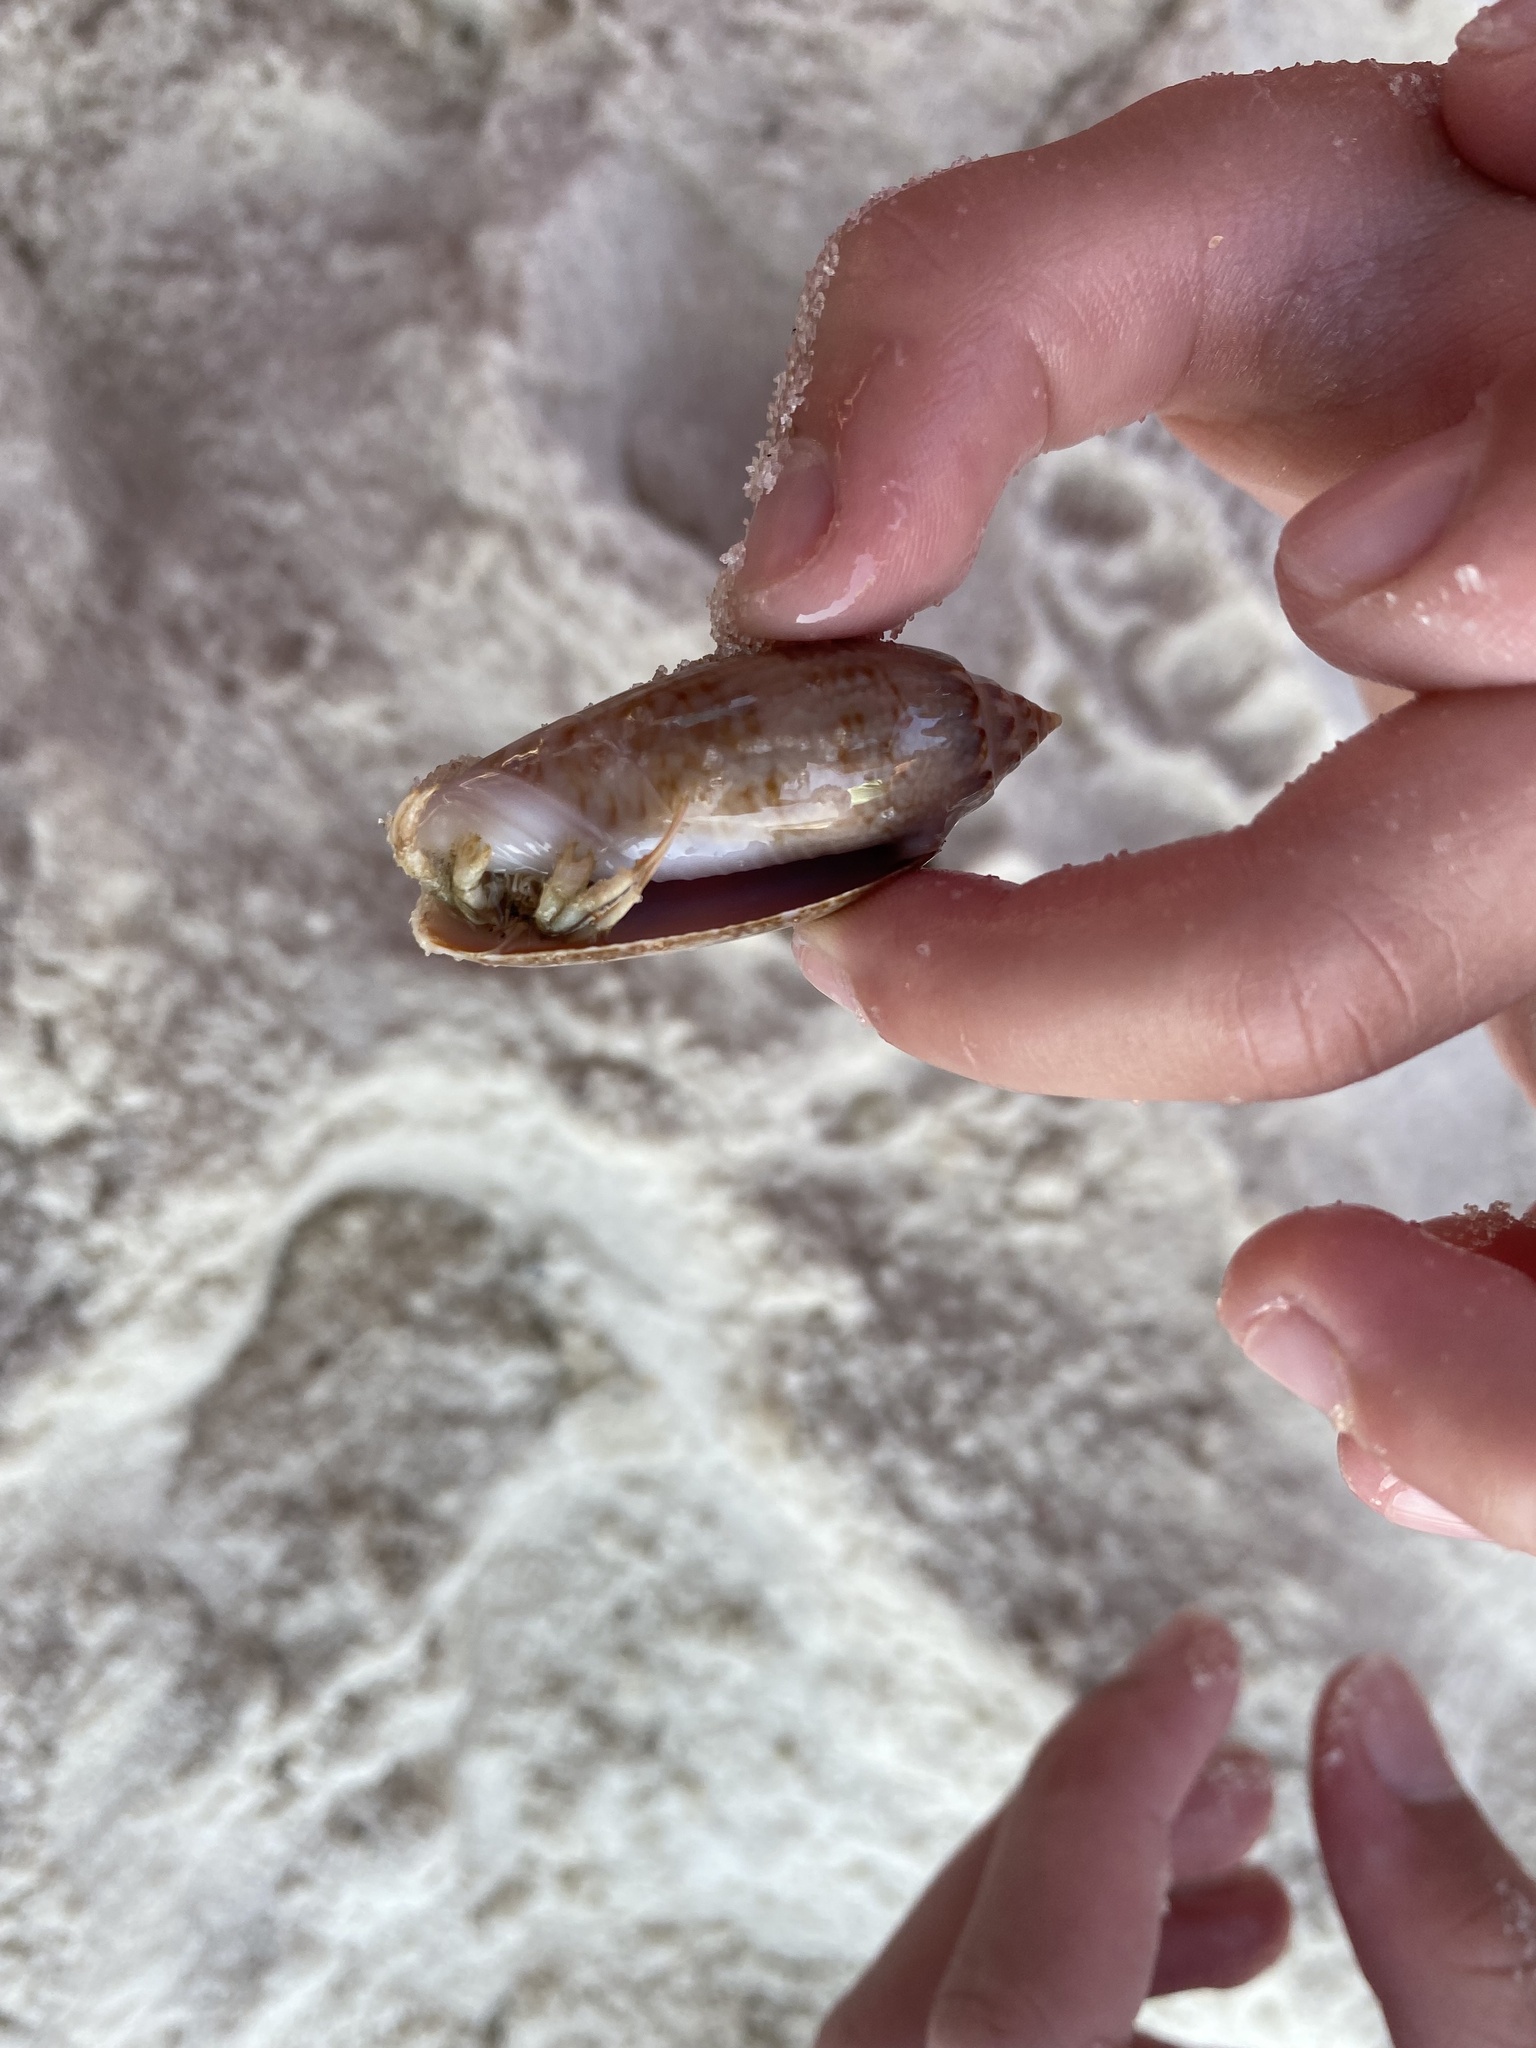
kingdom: Animalia
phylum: Arthropoda
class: Malacostraca
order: Decapoda
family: Diogenidae
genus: Isocheles
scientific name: Isocheles wurdemanni
